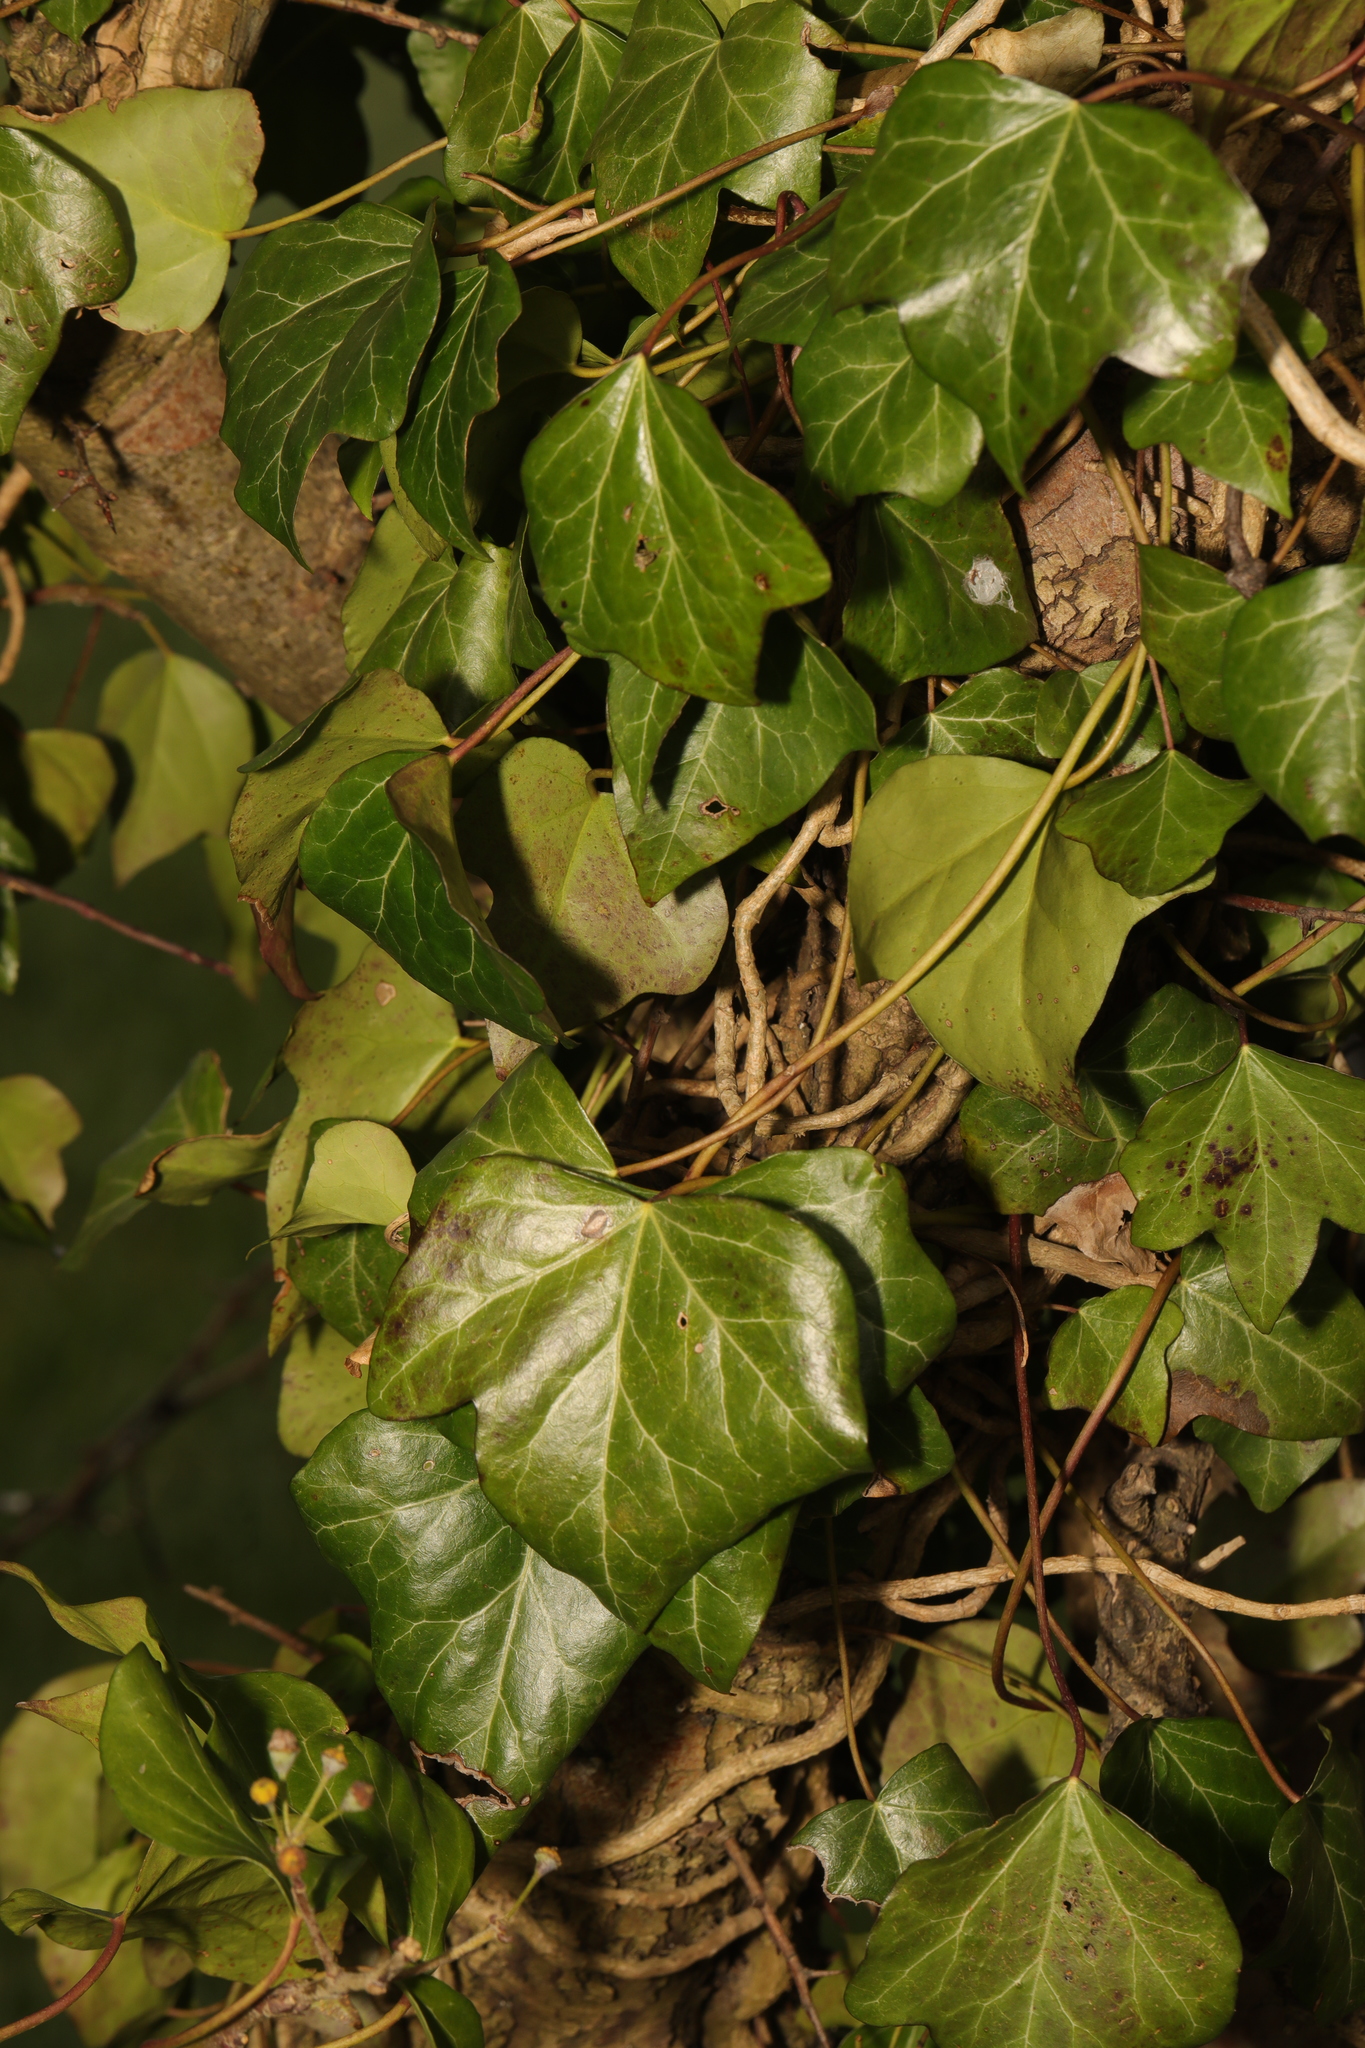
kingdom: Plantae
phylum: Tracheophyta
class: Magnoliopsida
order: Apiales
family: Araliaceae
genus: Hedera
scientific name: Hedera helix
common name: Ivy
